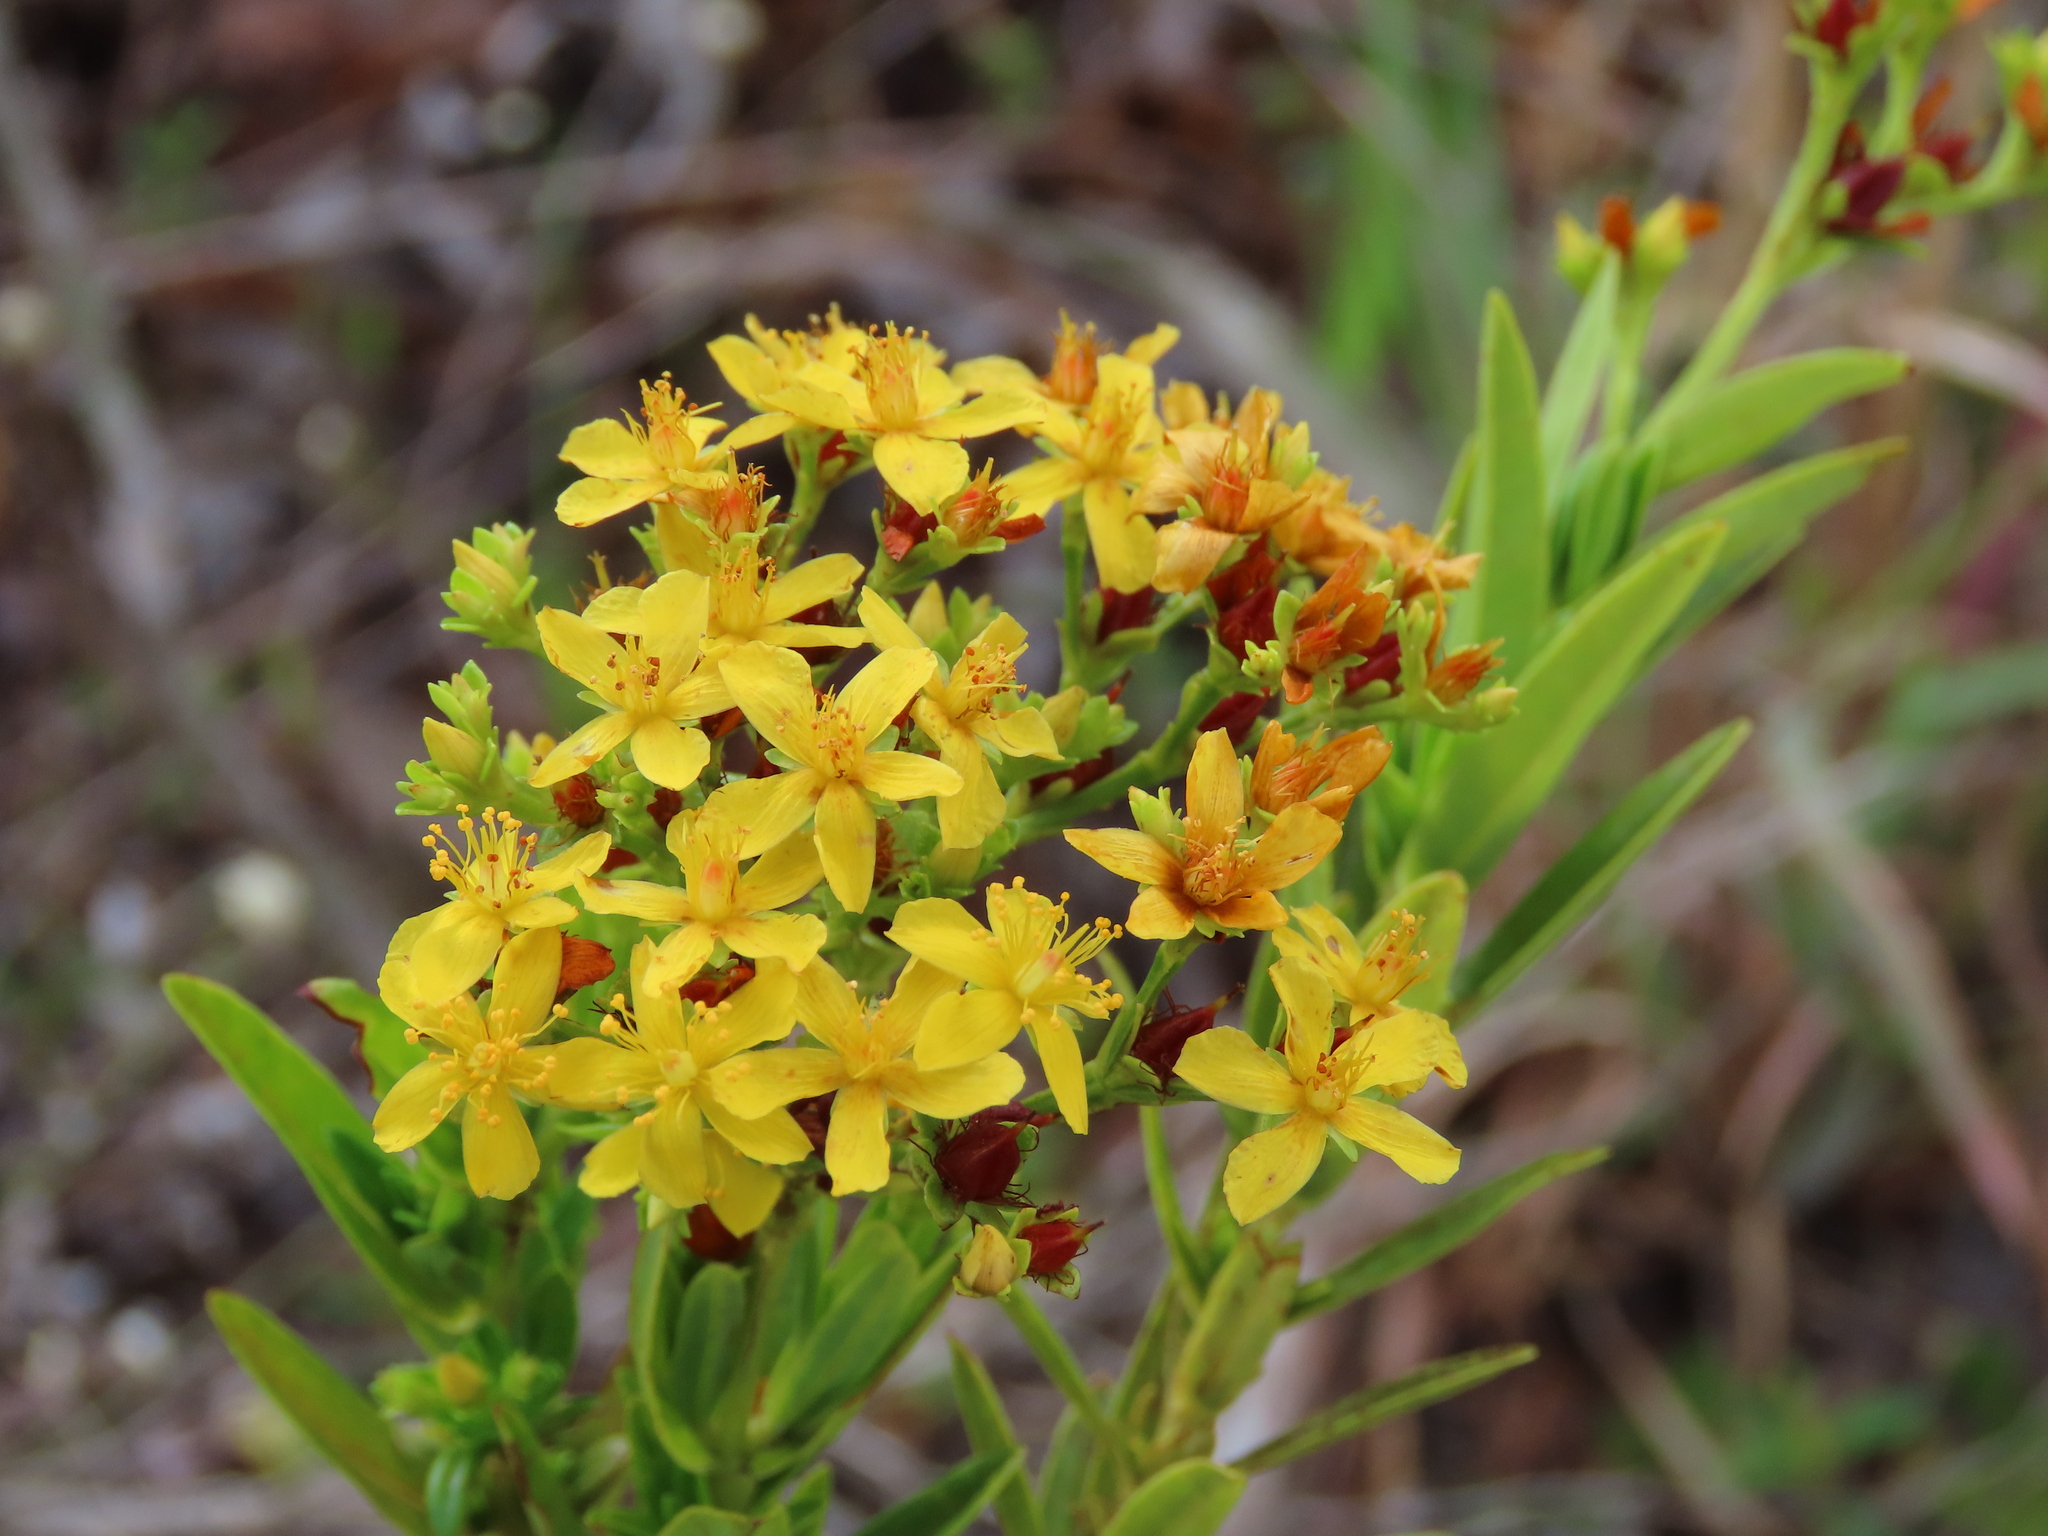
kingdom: Plantae
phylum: Tracheophyta
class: Magnoliopsida
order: Malpighiales
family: Hypericaceae
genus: Hypericum
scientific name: Hypericum cistifolium
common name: Round-pod st. john's-wort
